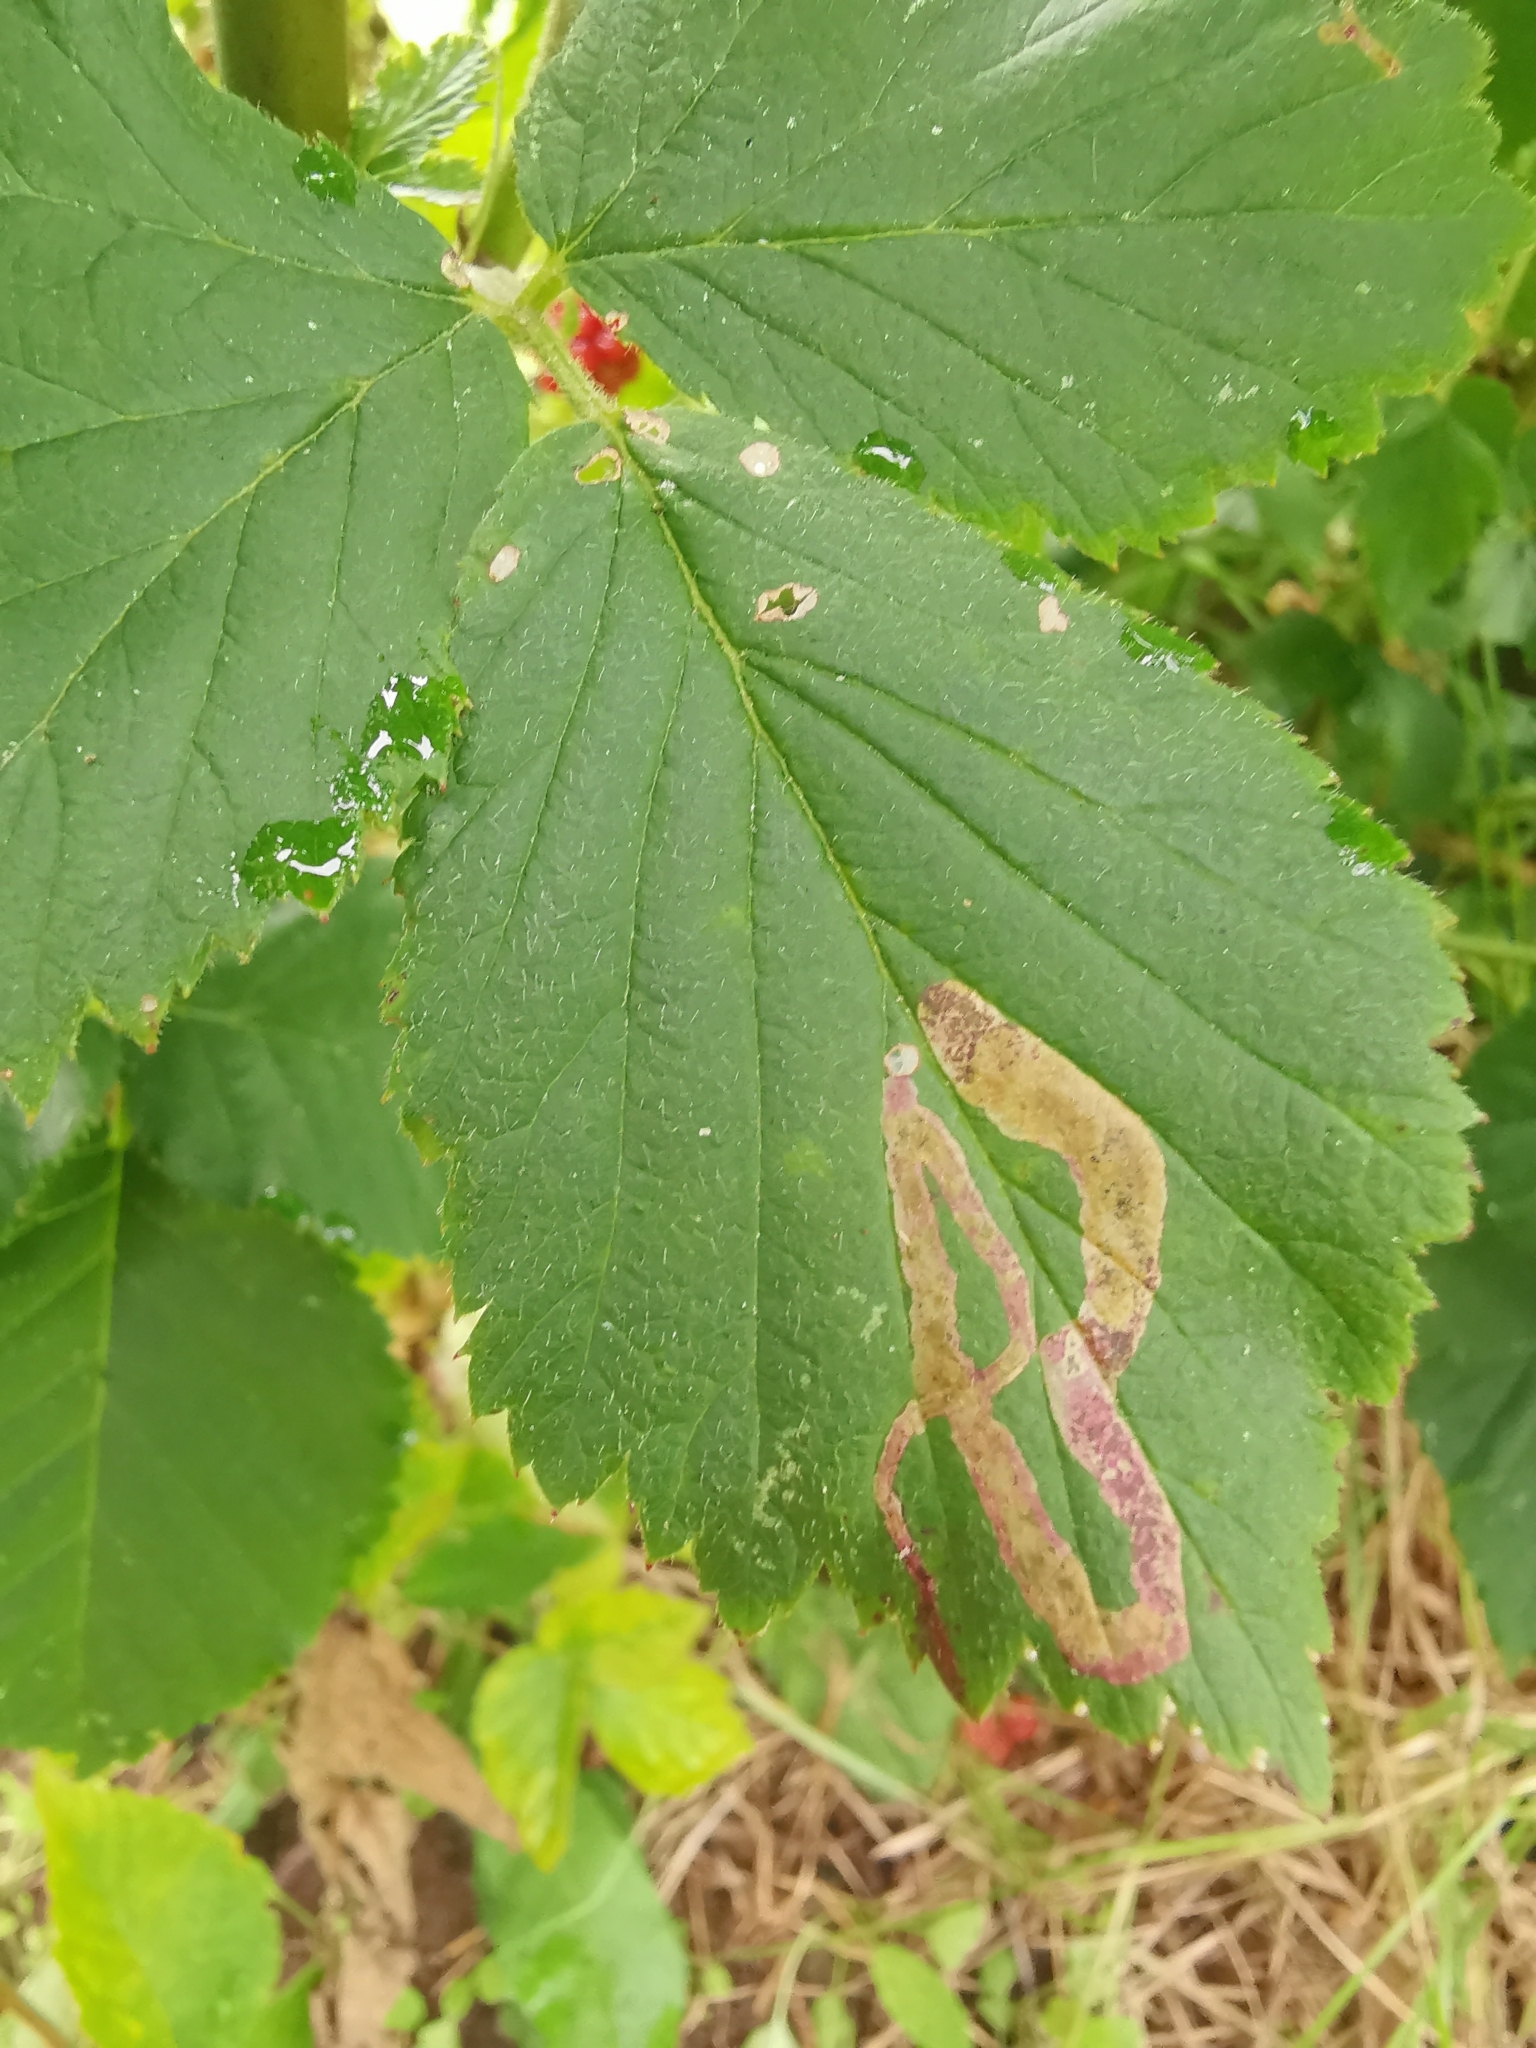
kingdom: Animalia
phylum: Arthropoda
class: Insecta
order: Diptera
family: Agromyzidae
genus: Agromyza
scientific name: Agromyza vockerothi
